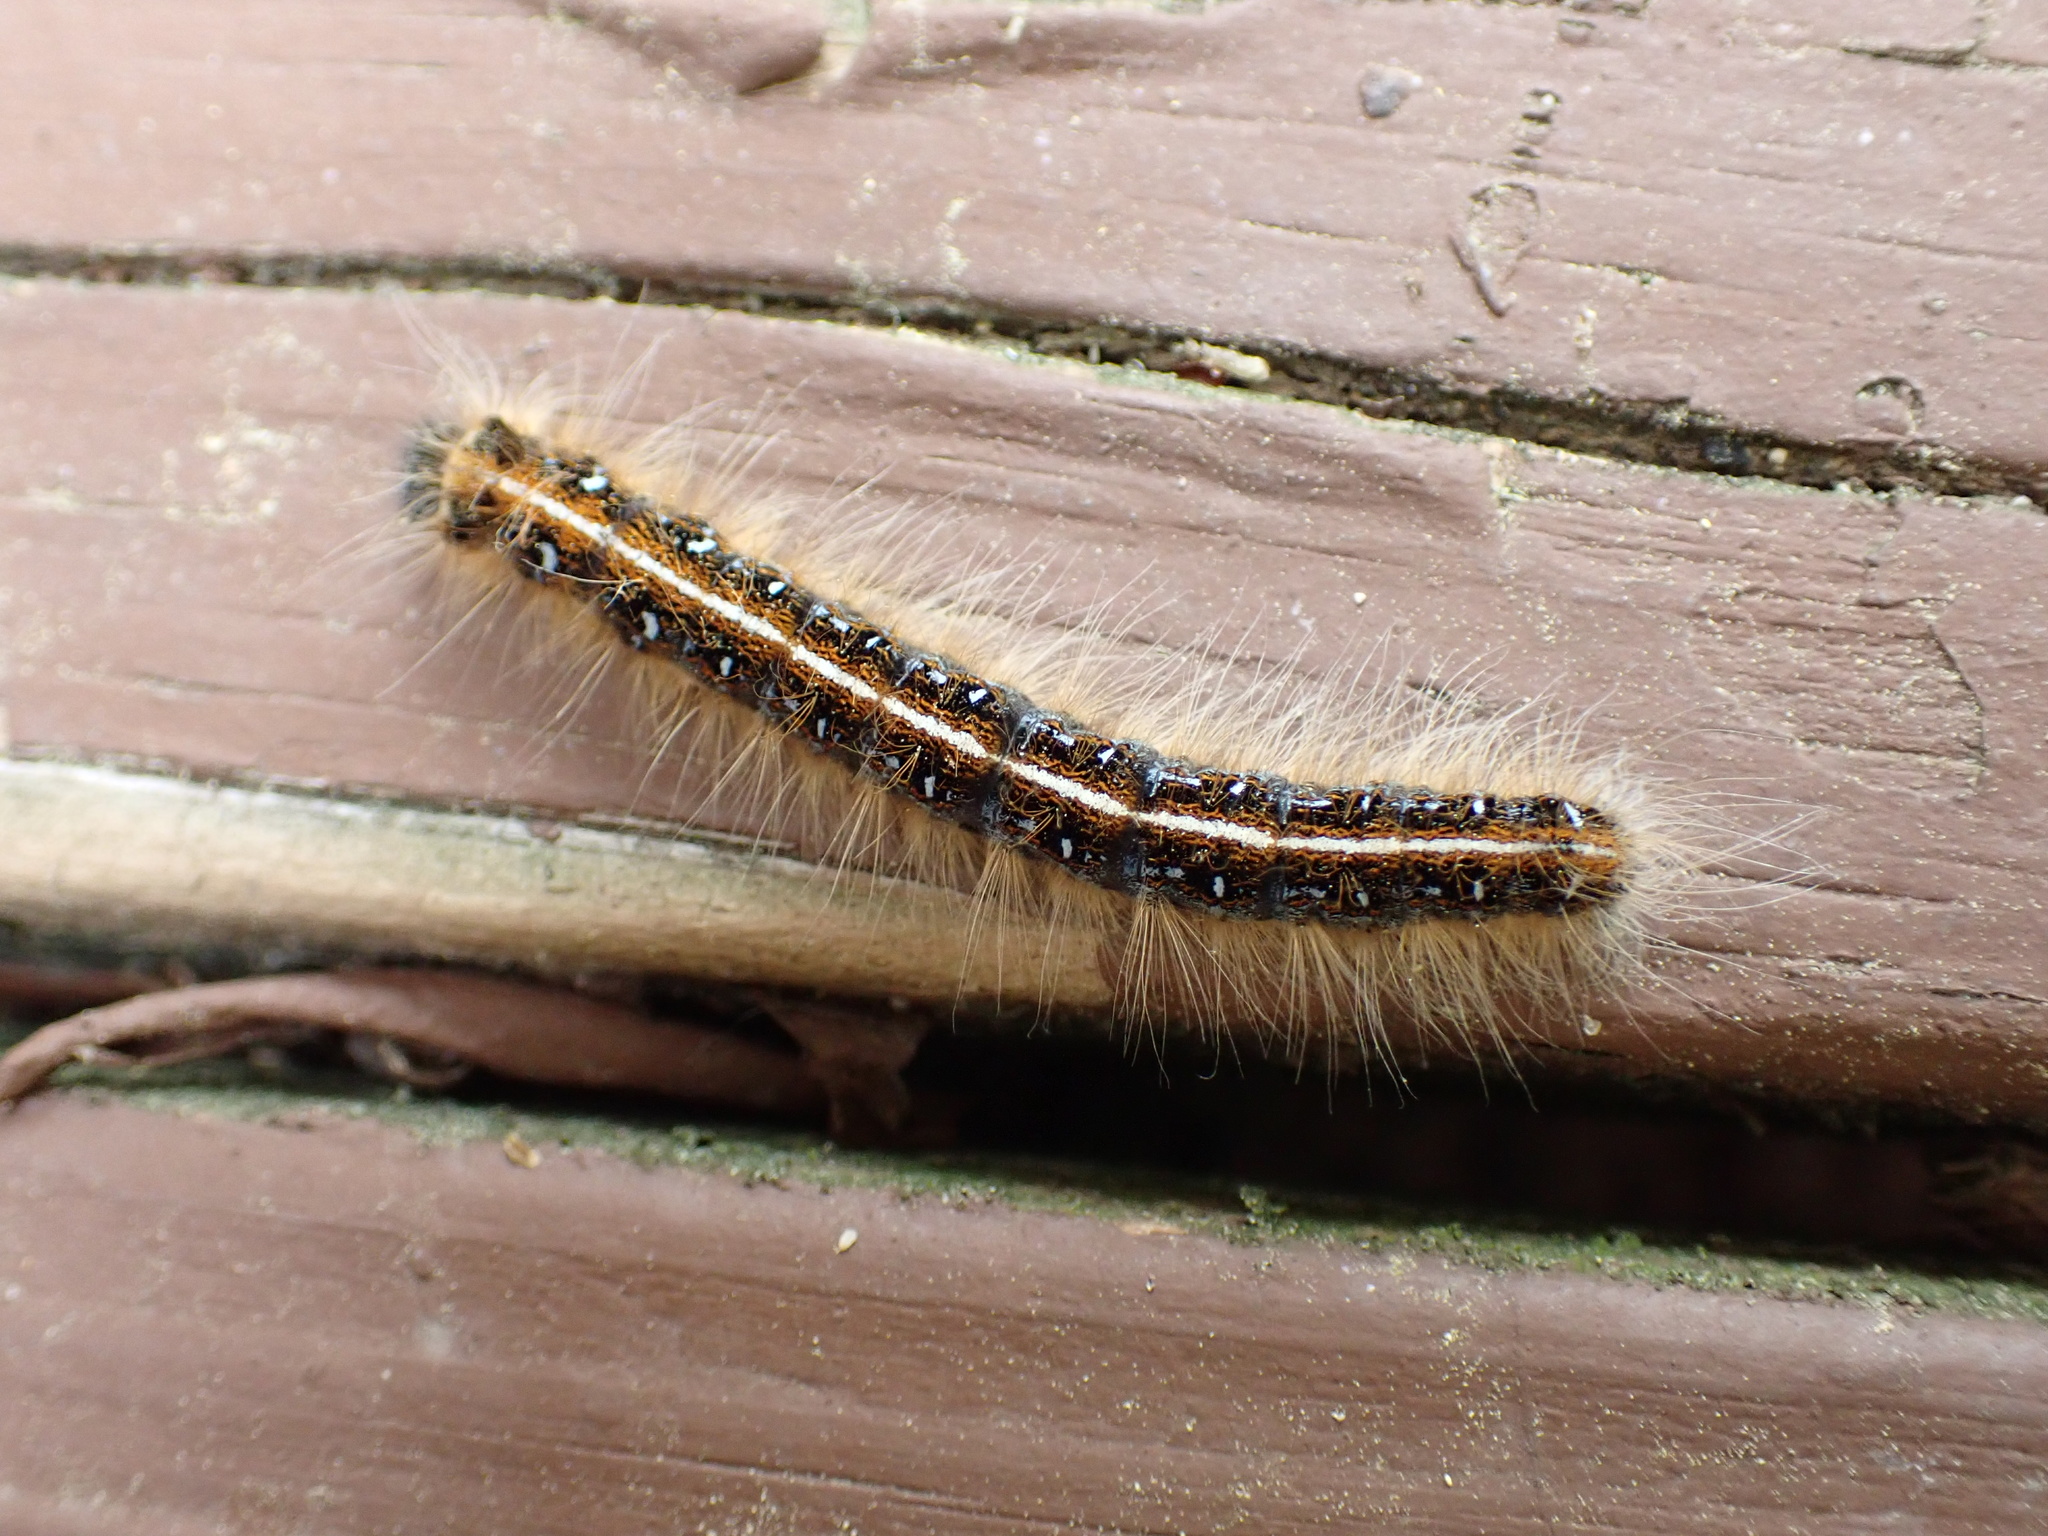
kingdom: Animalia
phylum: Arthropoda
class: Insecta
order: Lepidoptera
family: Lasiocampidae
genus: Malacosoma
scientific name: Malacosoma americana
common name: Eastern tent caterpillar moth
